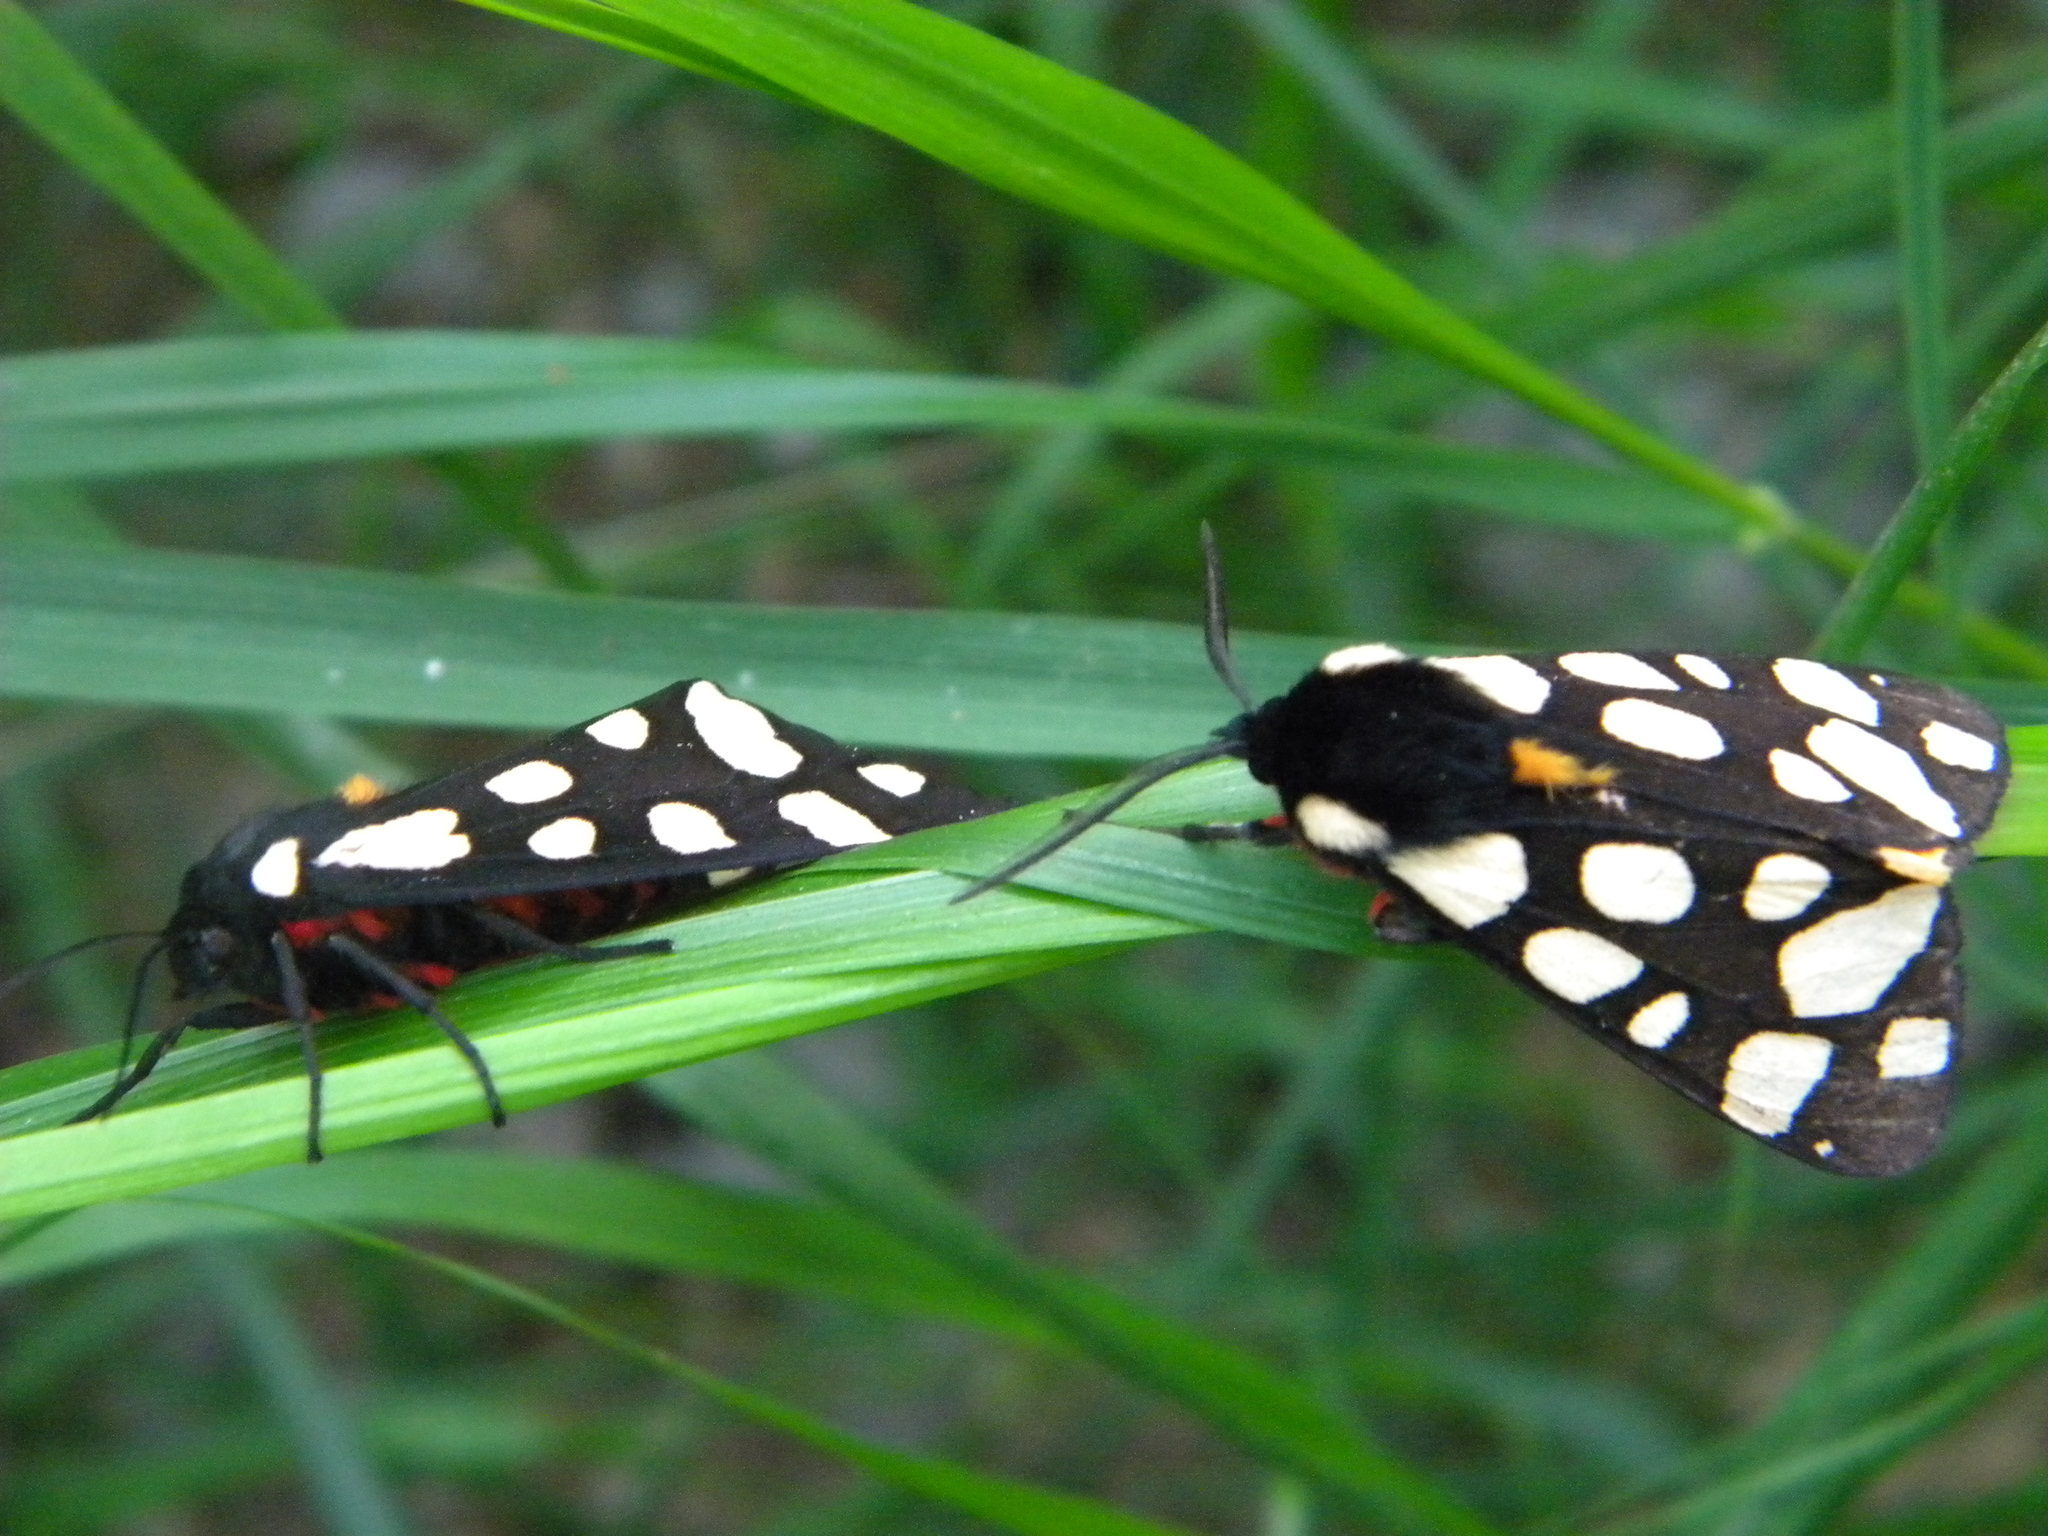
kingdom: Animalia
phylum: Arthropoda
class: Insecta
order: Lepidoptera
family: Erebidae
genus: Epicallia
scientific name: Epicallia villica
